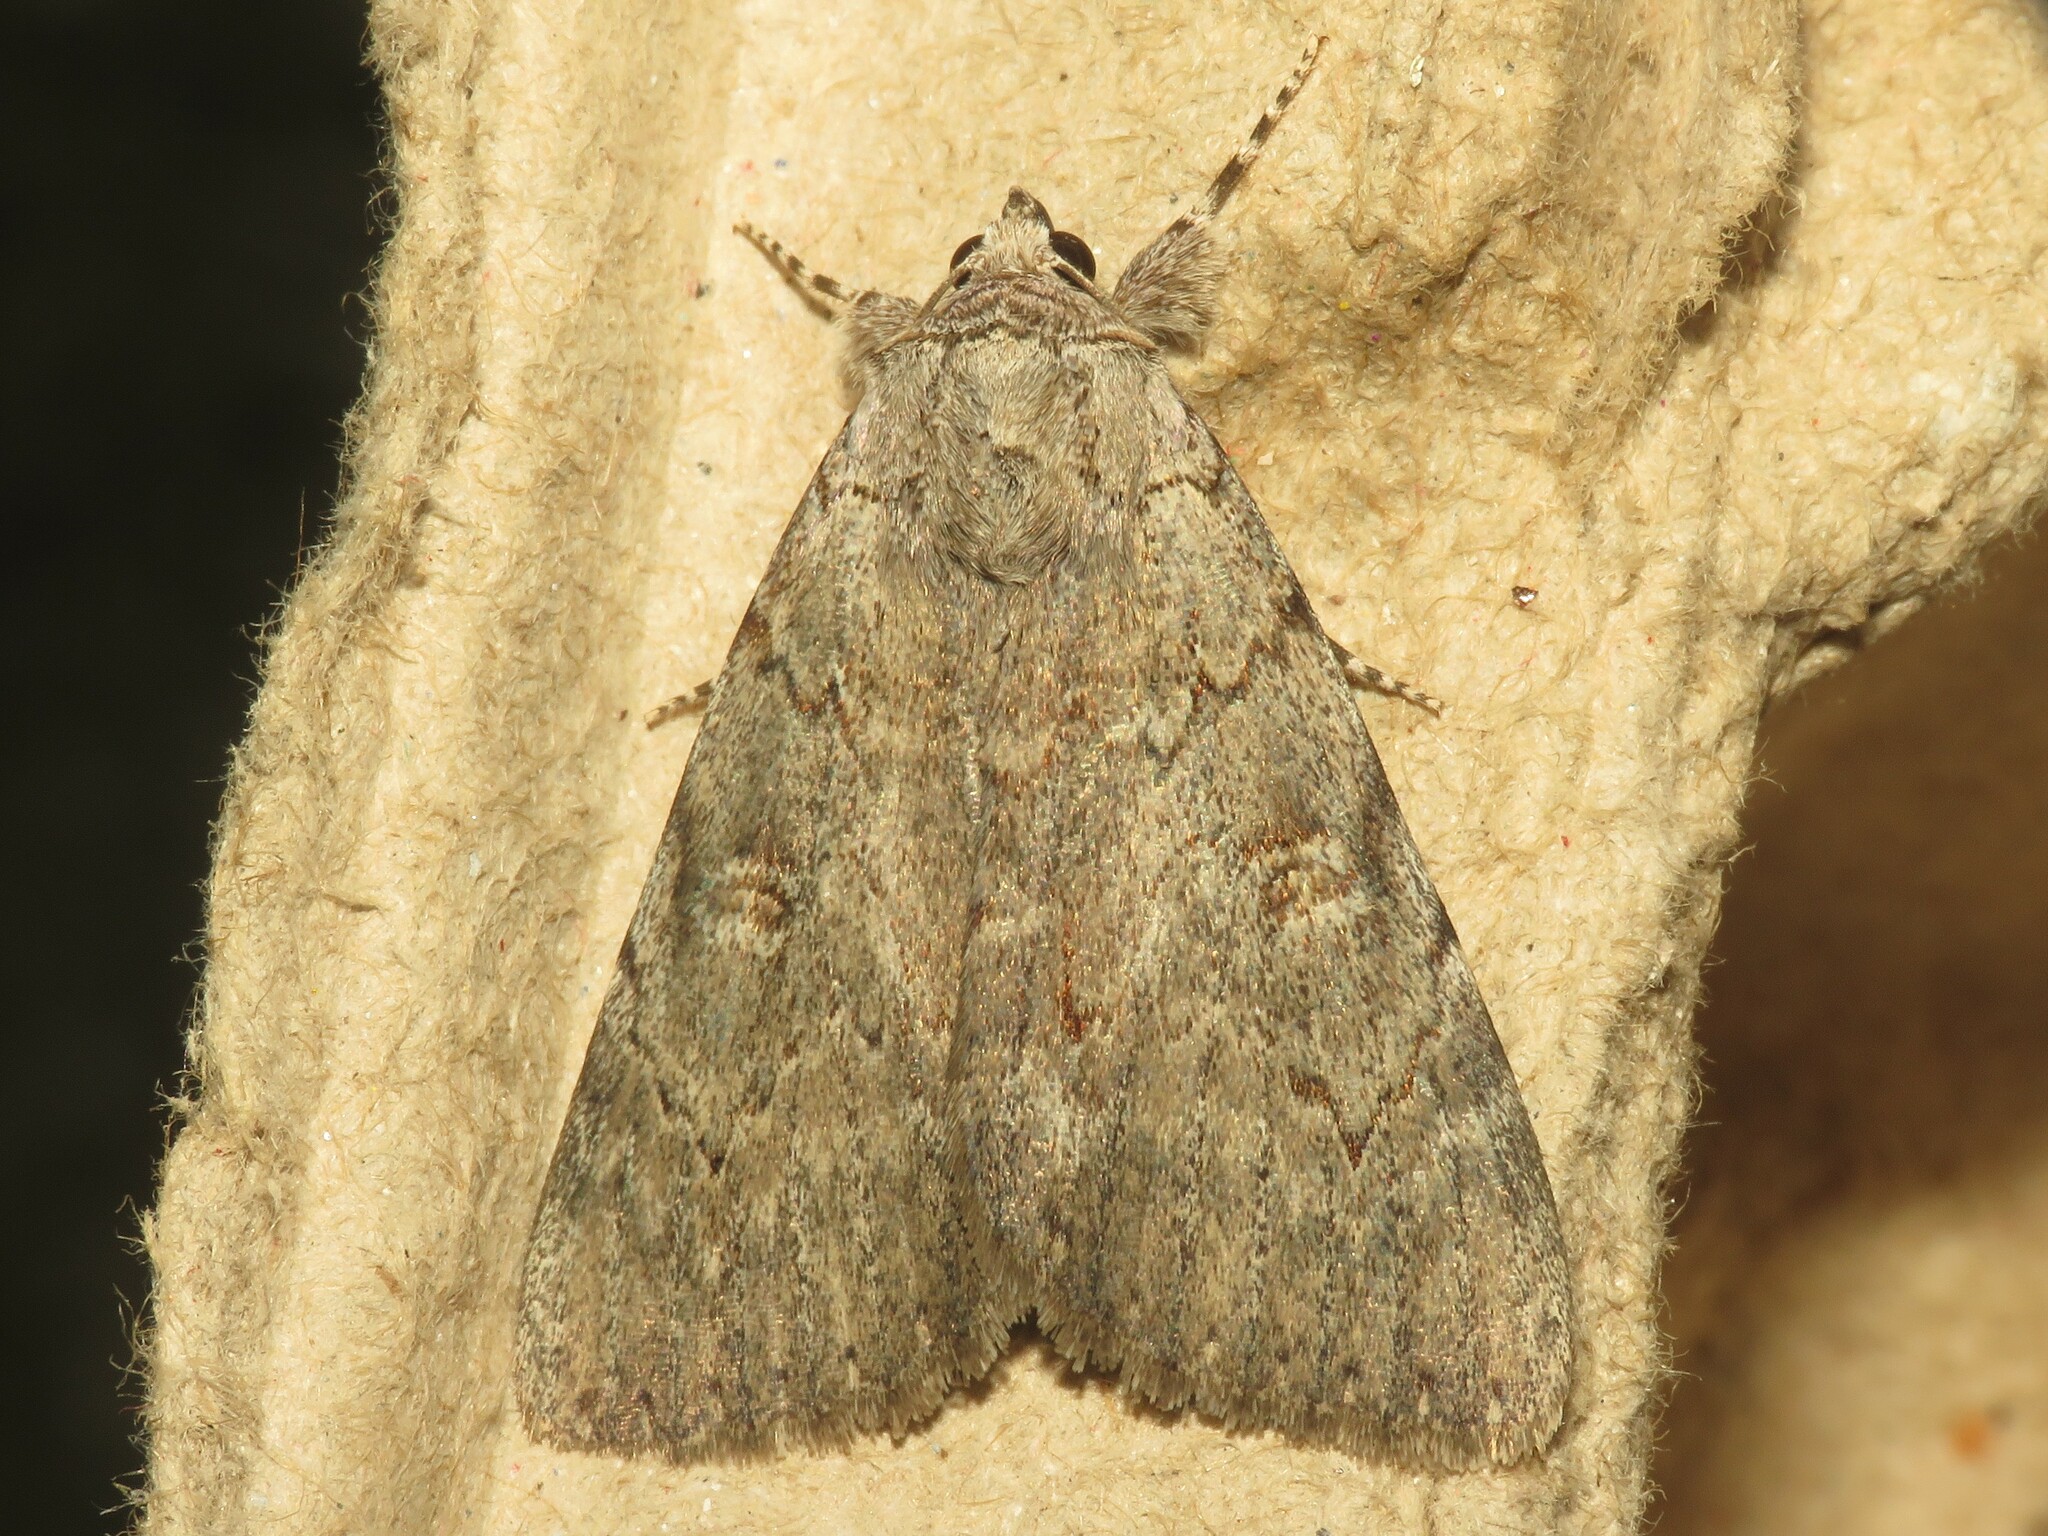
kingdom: Animalia
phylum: Arthropoda
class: Insecta
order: Lepidoptera
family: Erebidae
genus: Catocala
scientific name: Catocala judith
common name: Judith's underwing
